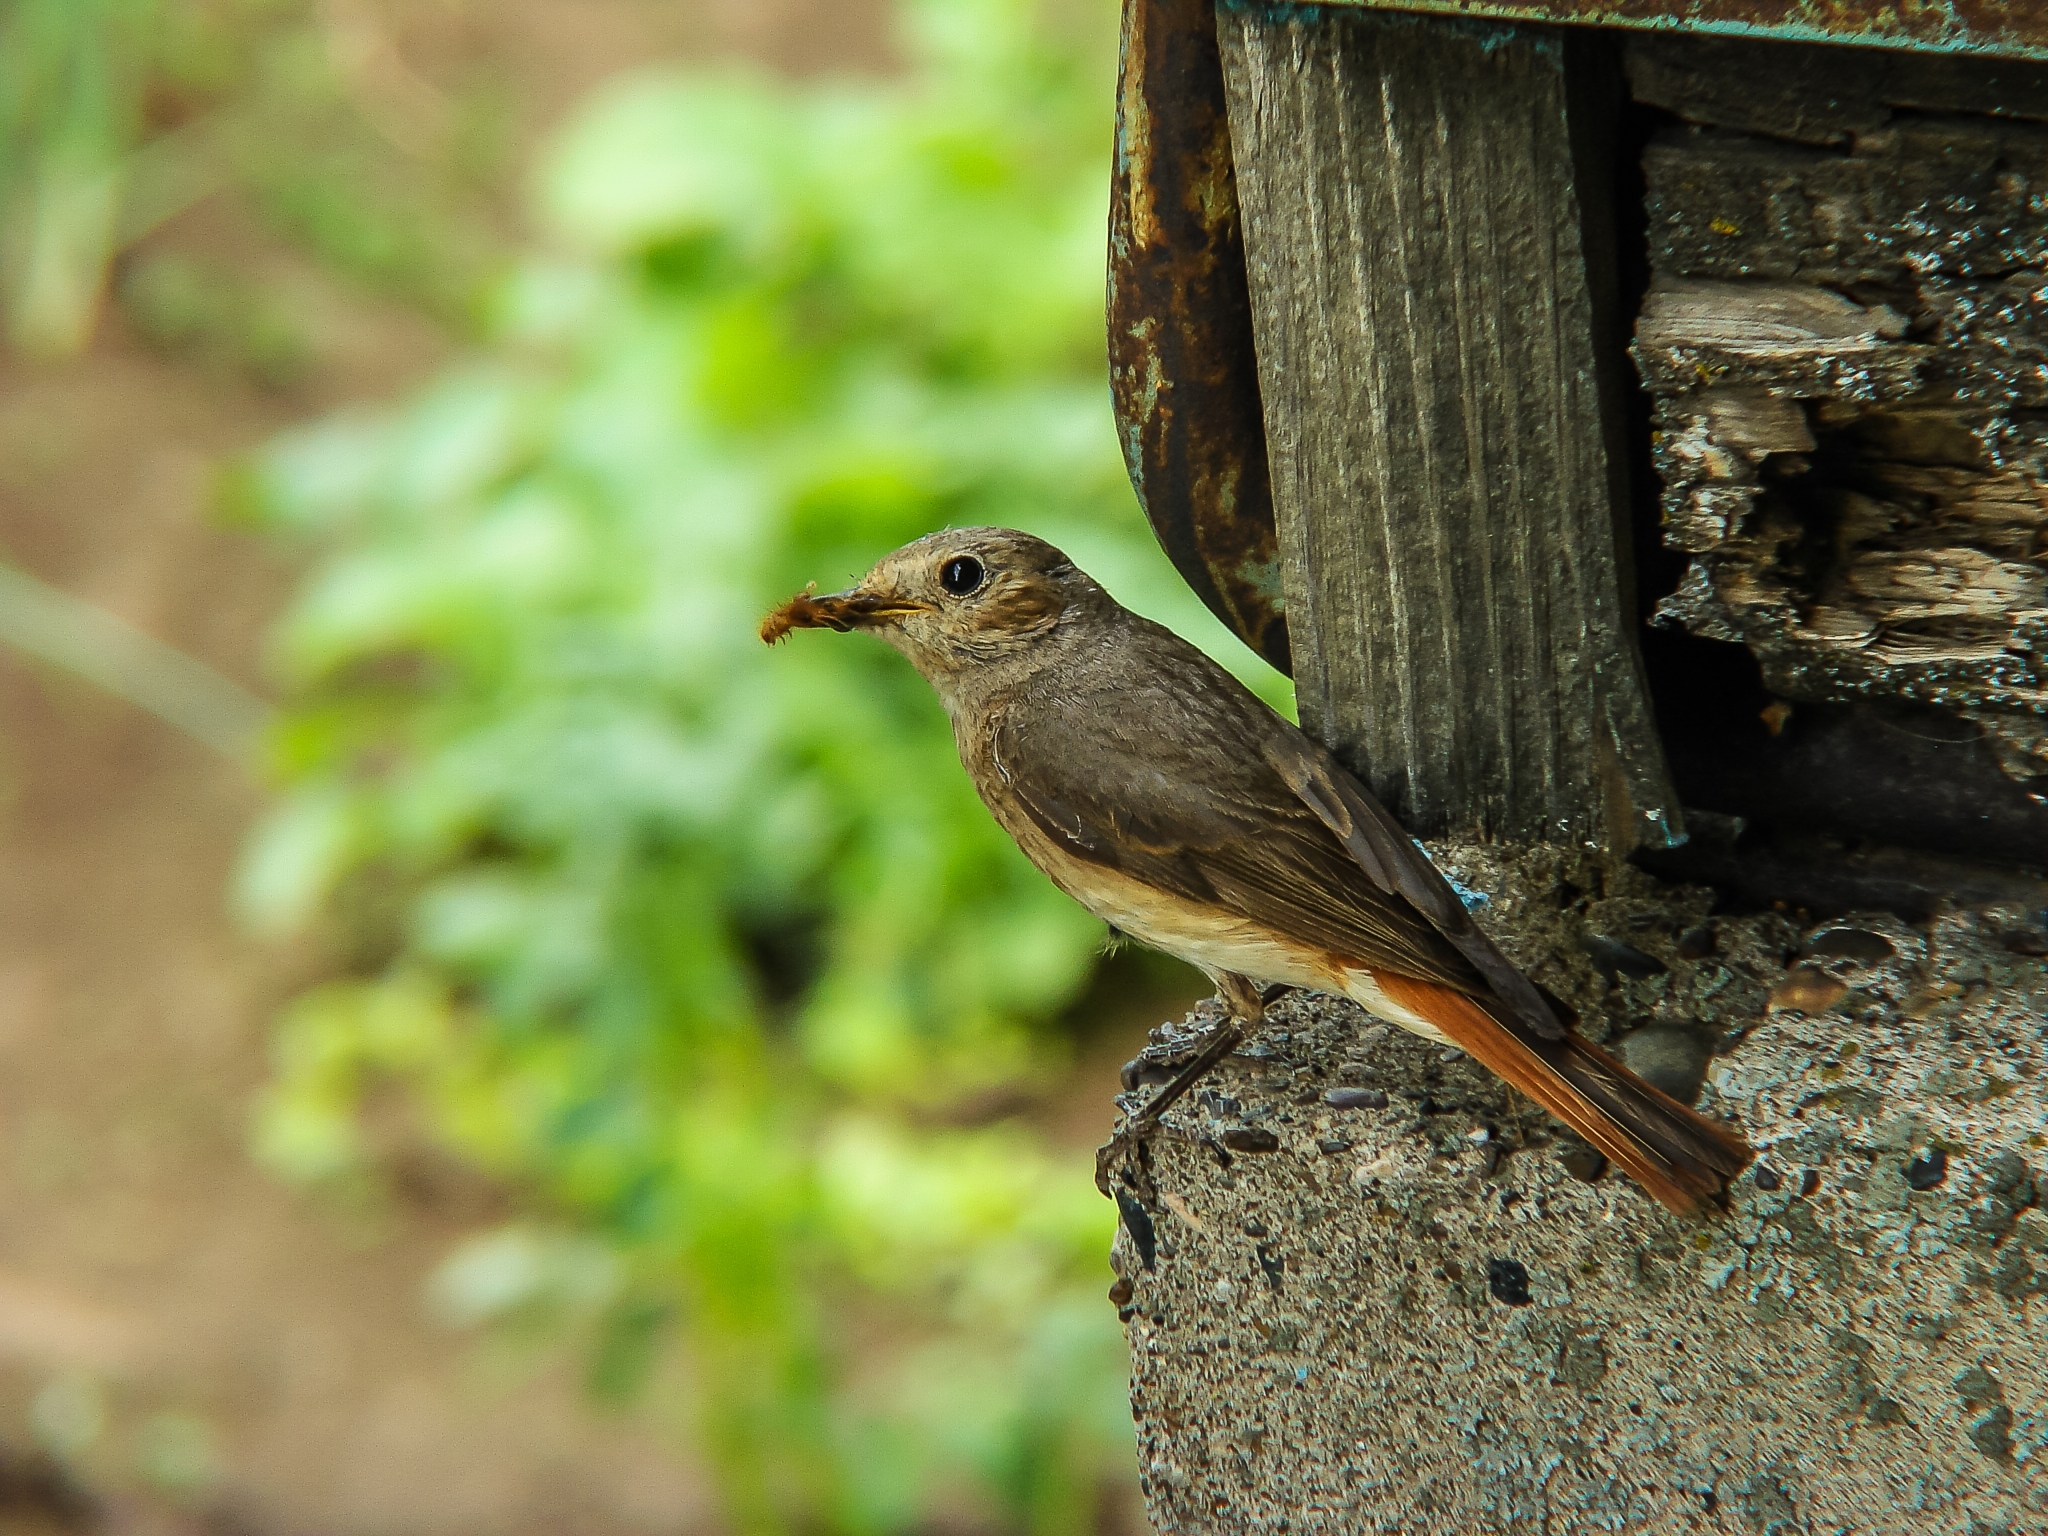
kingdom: Animalia
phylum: Chordata
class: Aves
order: Passeriformes
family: Muscicapidae
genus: Phoenicurus
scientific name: Phoenicurus phoenicurus
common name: Common redstart
